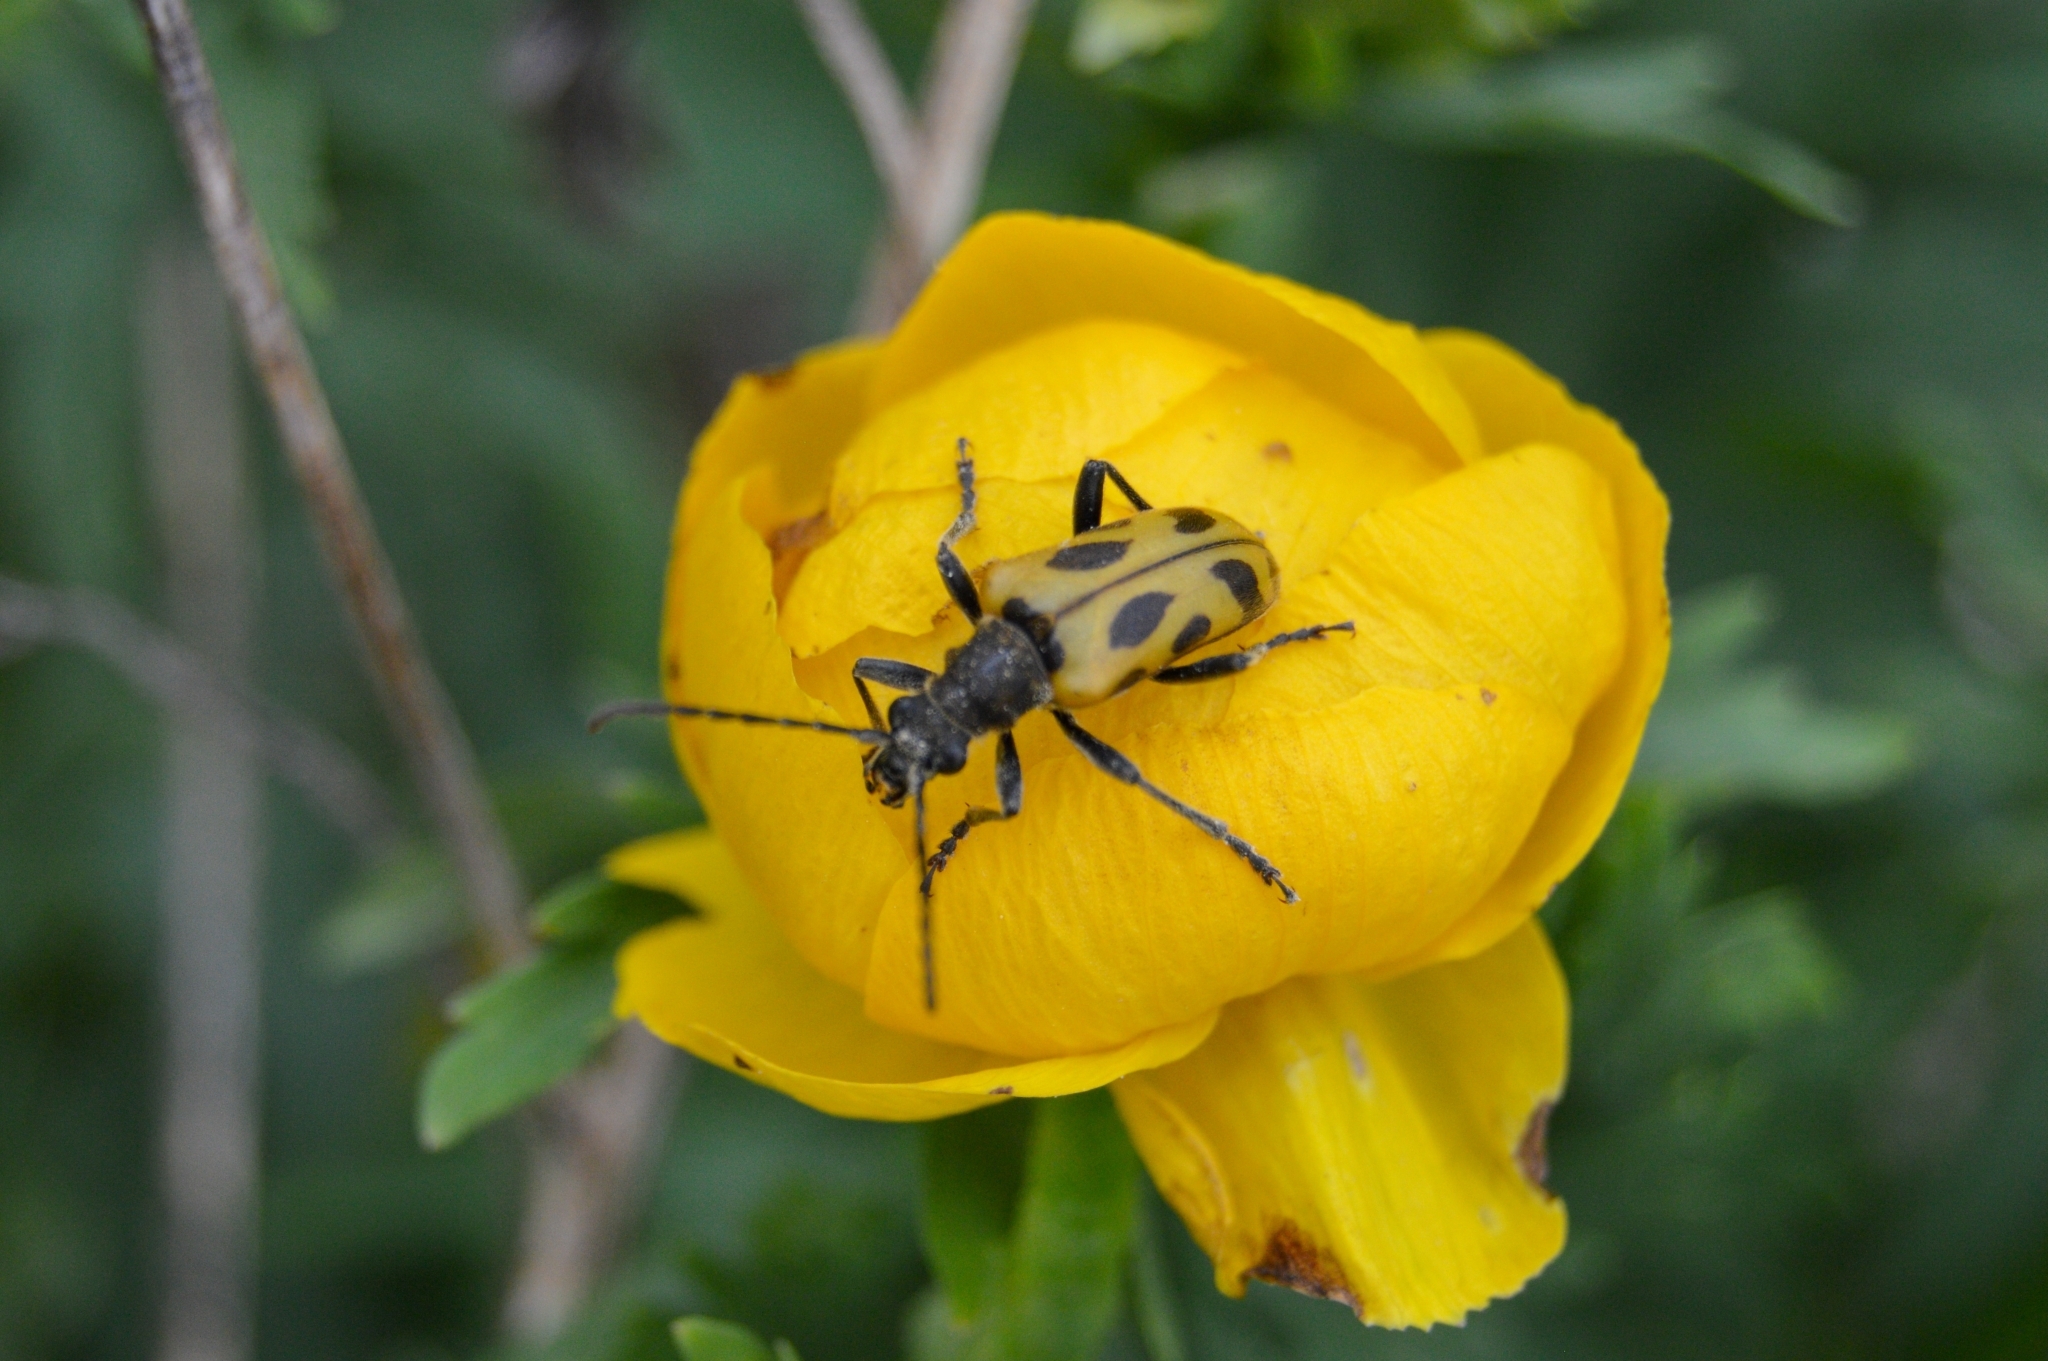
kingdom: Animalia
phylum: Arthropoda
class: Insecta
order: Coleoptera
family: Cerambycidae
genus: Brachyta
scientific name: Brachyta interrogationis
